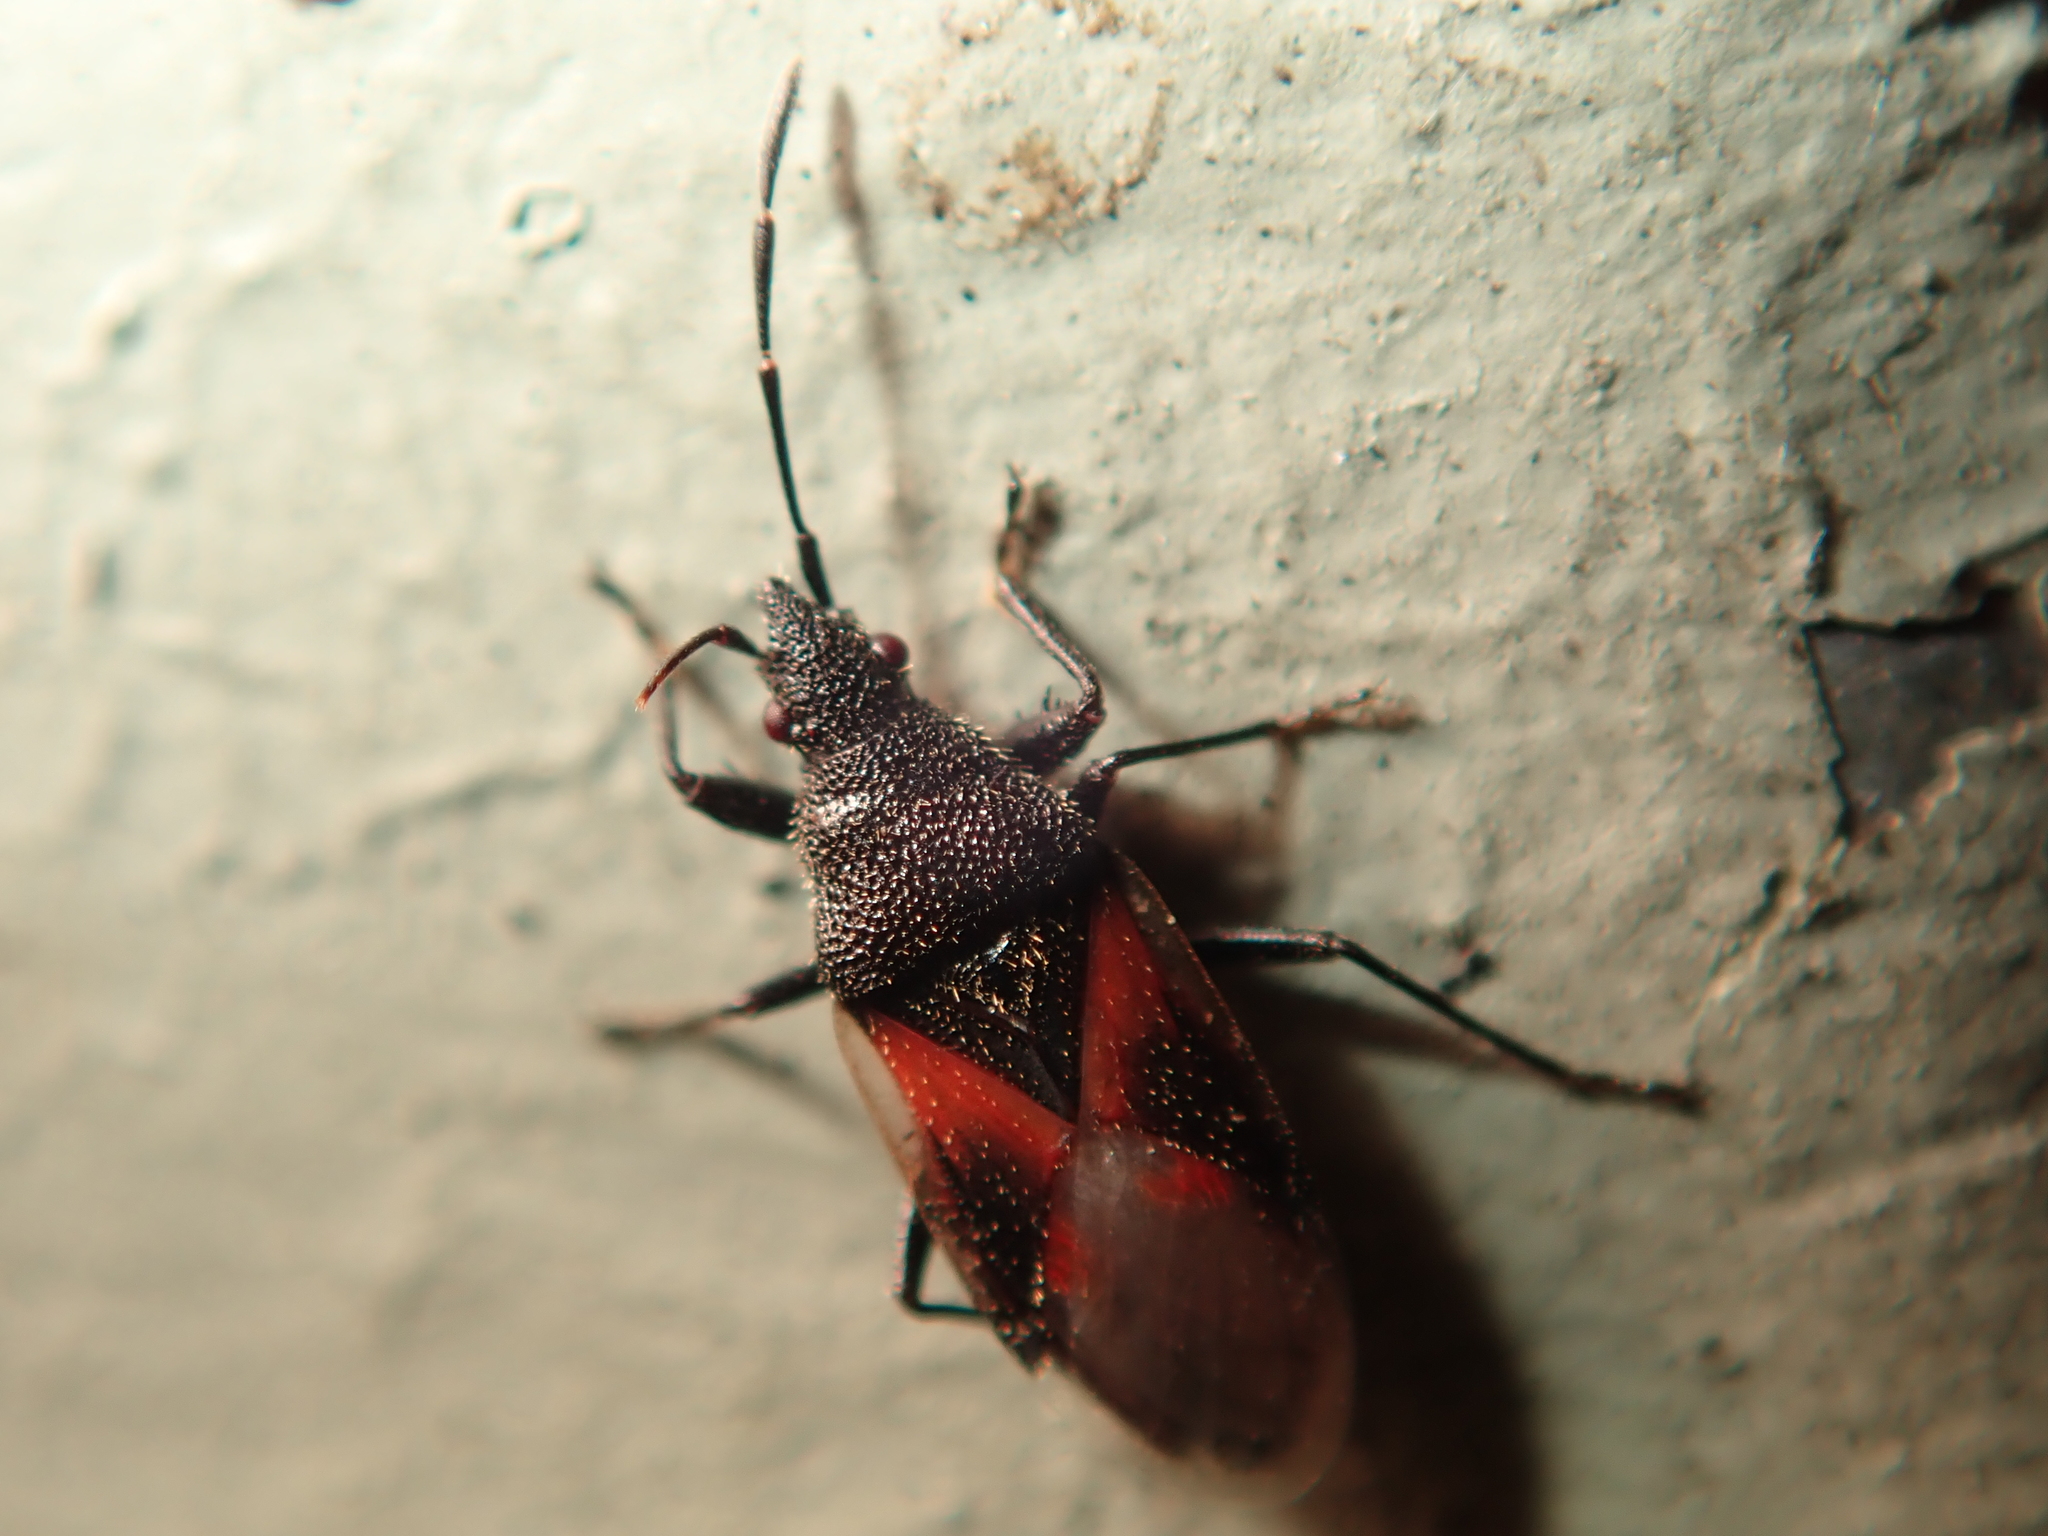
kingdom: Animalia
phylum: Arthropoda
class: Insecta
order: Hemiptera
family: Oxycarenidae
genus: Oxycarenus
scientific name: Oxycarenus lavaterae
